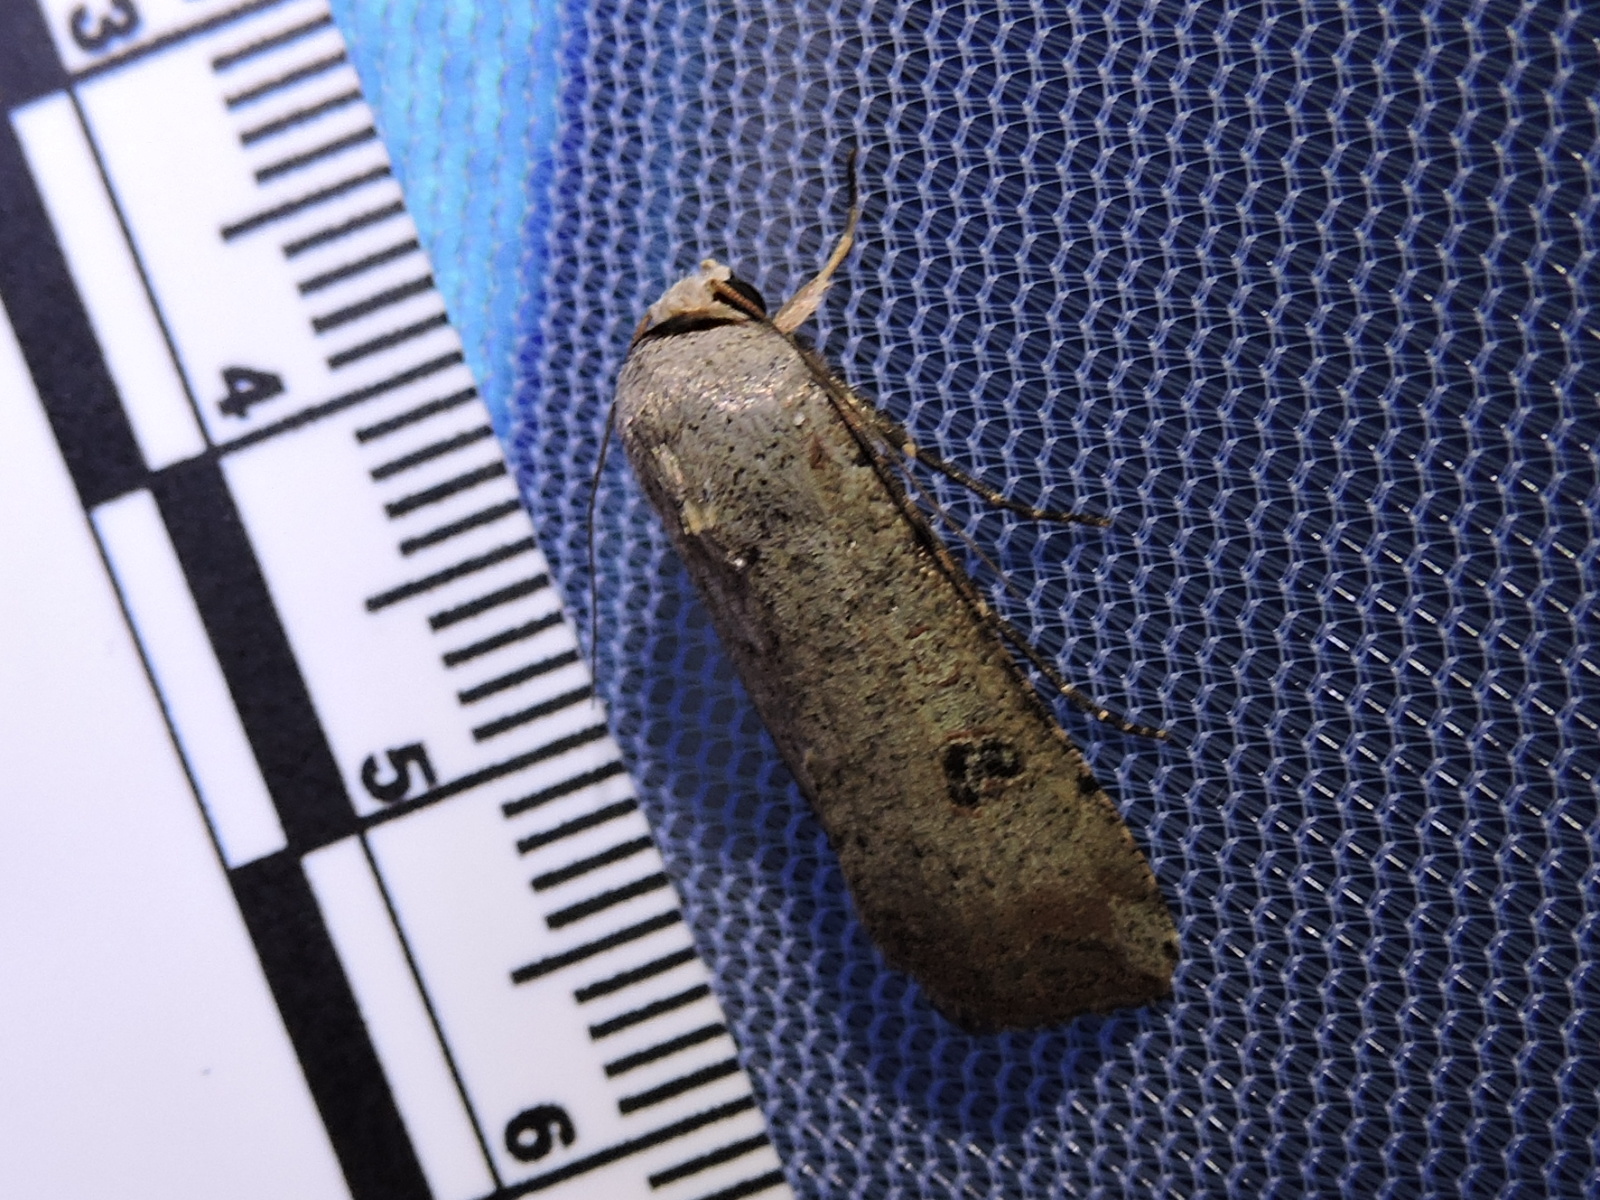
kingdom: Animalia
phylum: Arthropoda
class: Insecta
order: Lepidoptera
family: Noctuidae
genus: Anicla
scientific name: Anicla infecta
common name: Green cutworm
